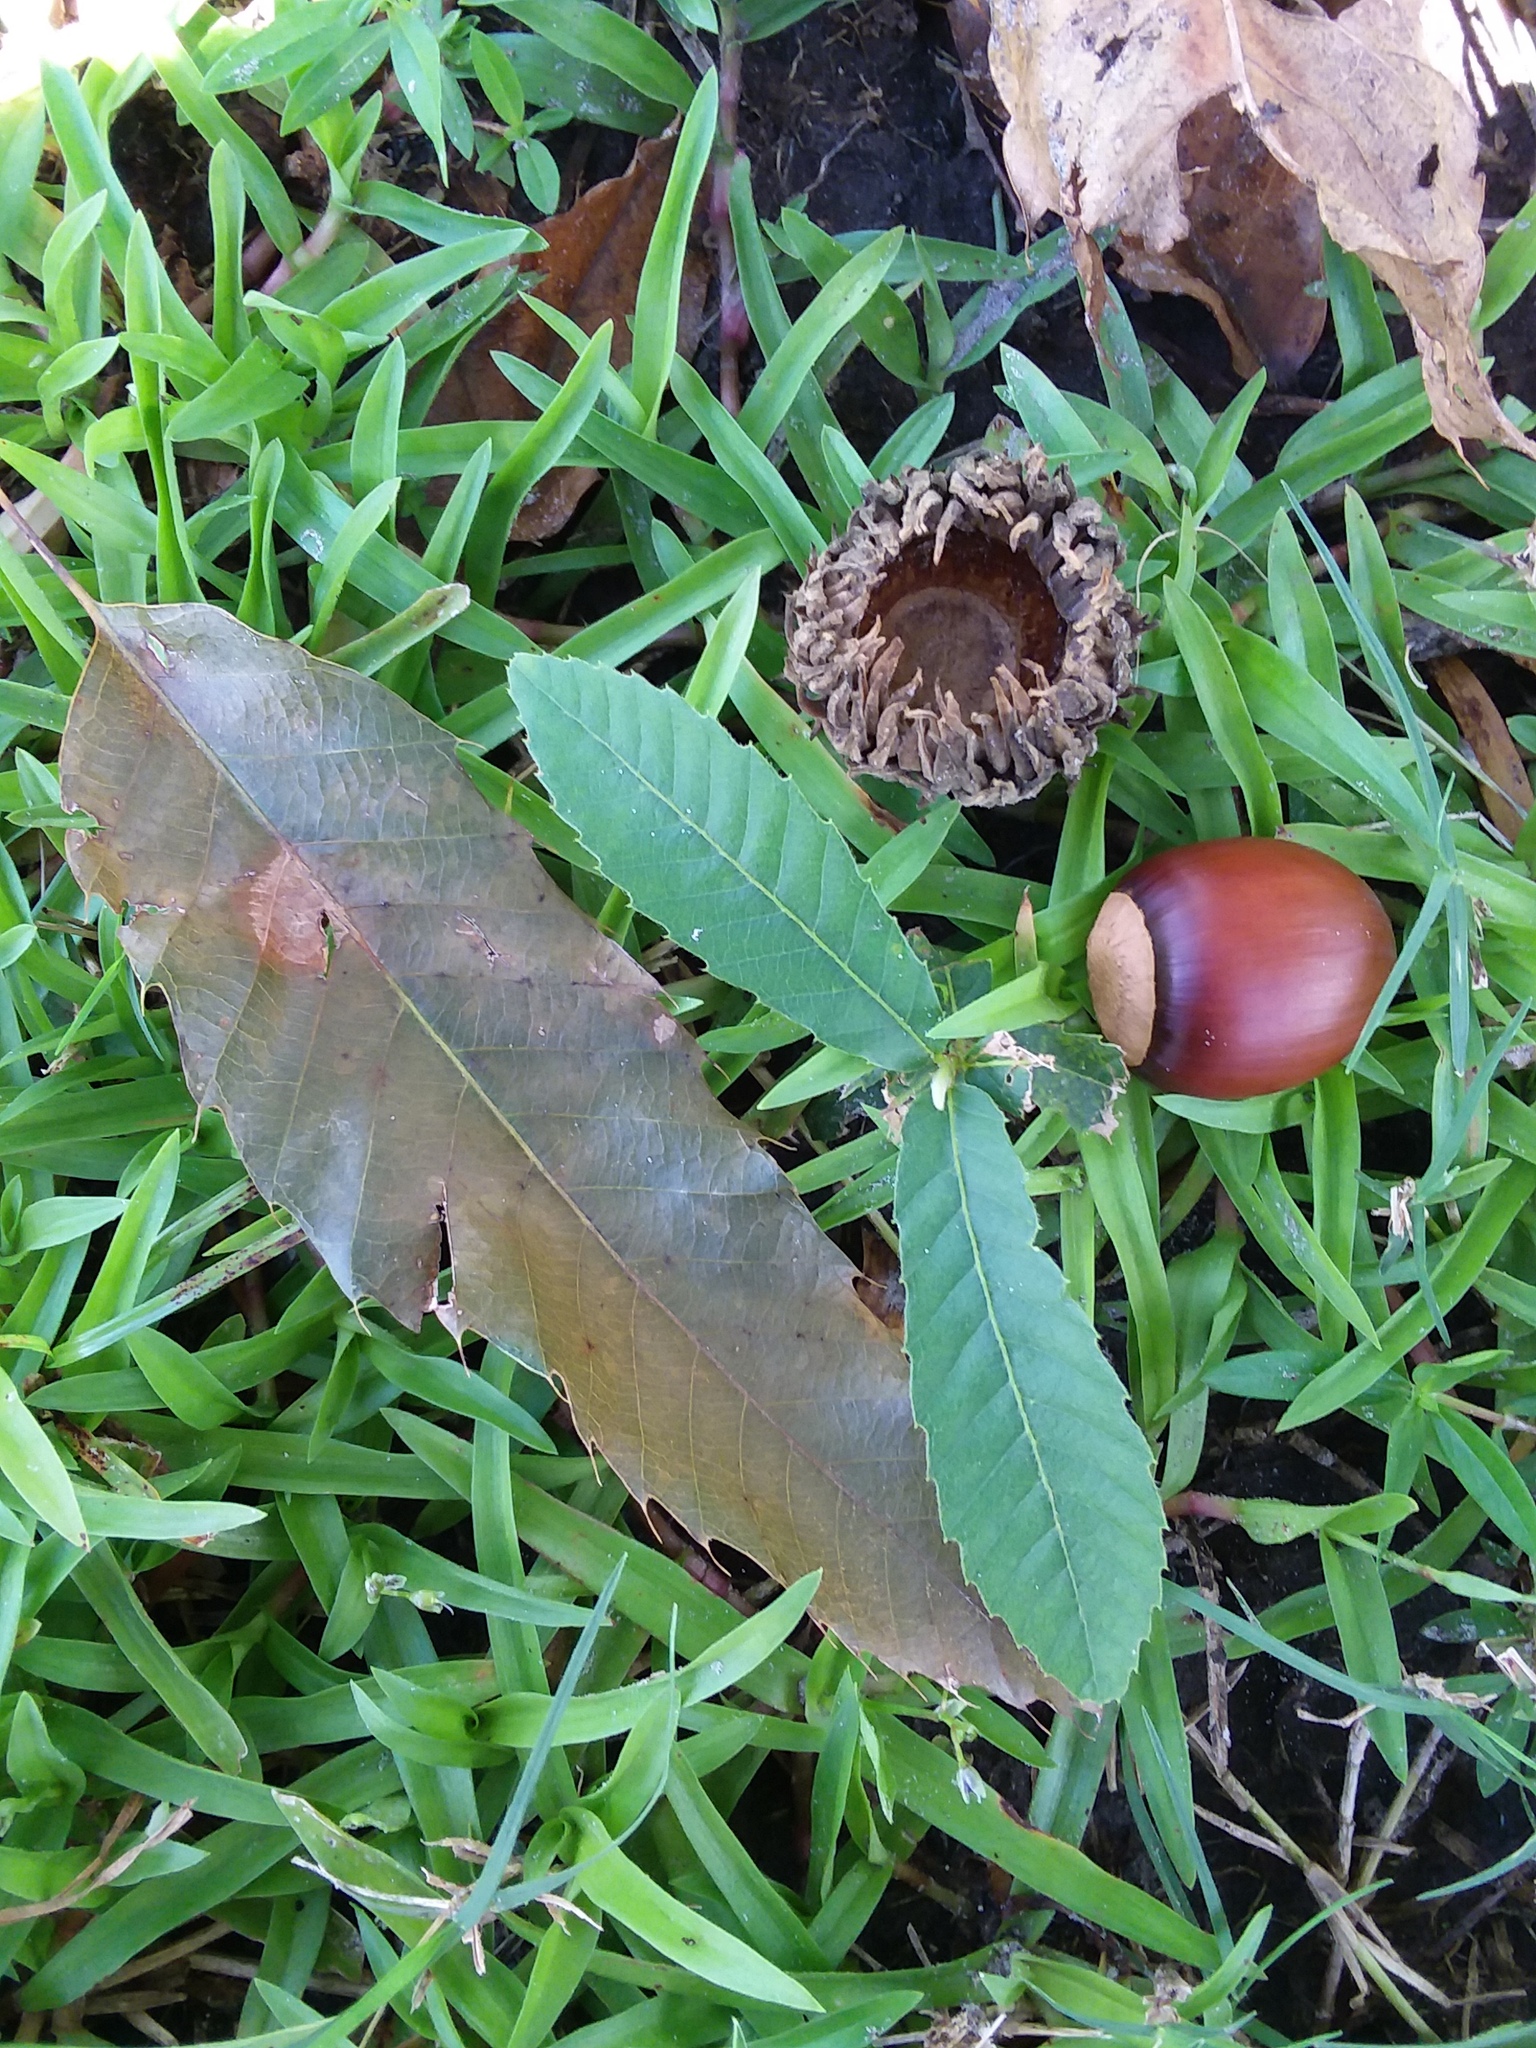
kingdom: Plantae
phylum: Tracheophyta
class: Magnoliopsida
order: Fagales
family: Fagaceae
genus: Quercus
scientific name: Quercus acutissima
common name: Sawtooth oak
